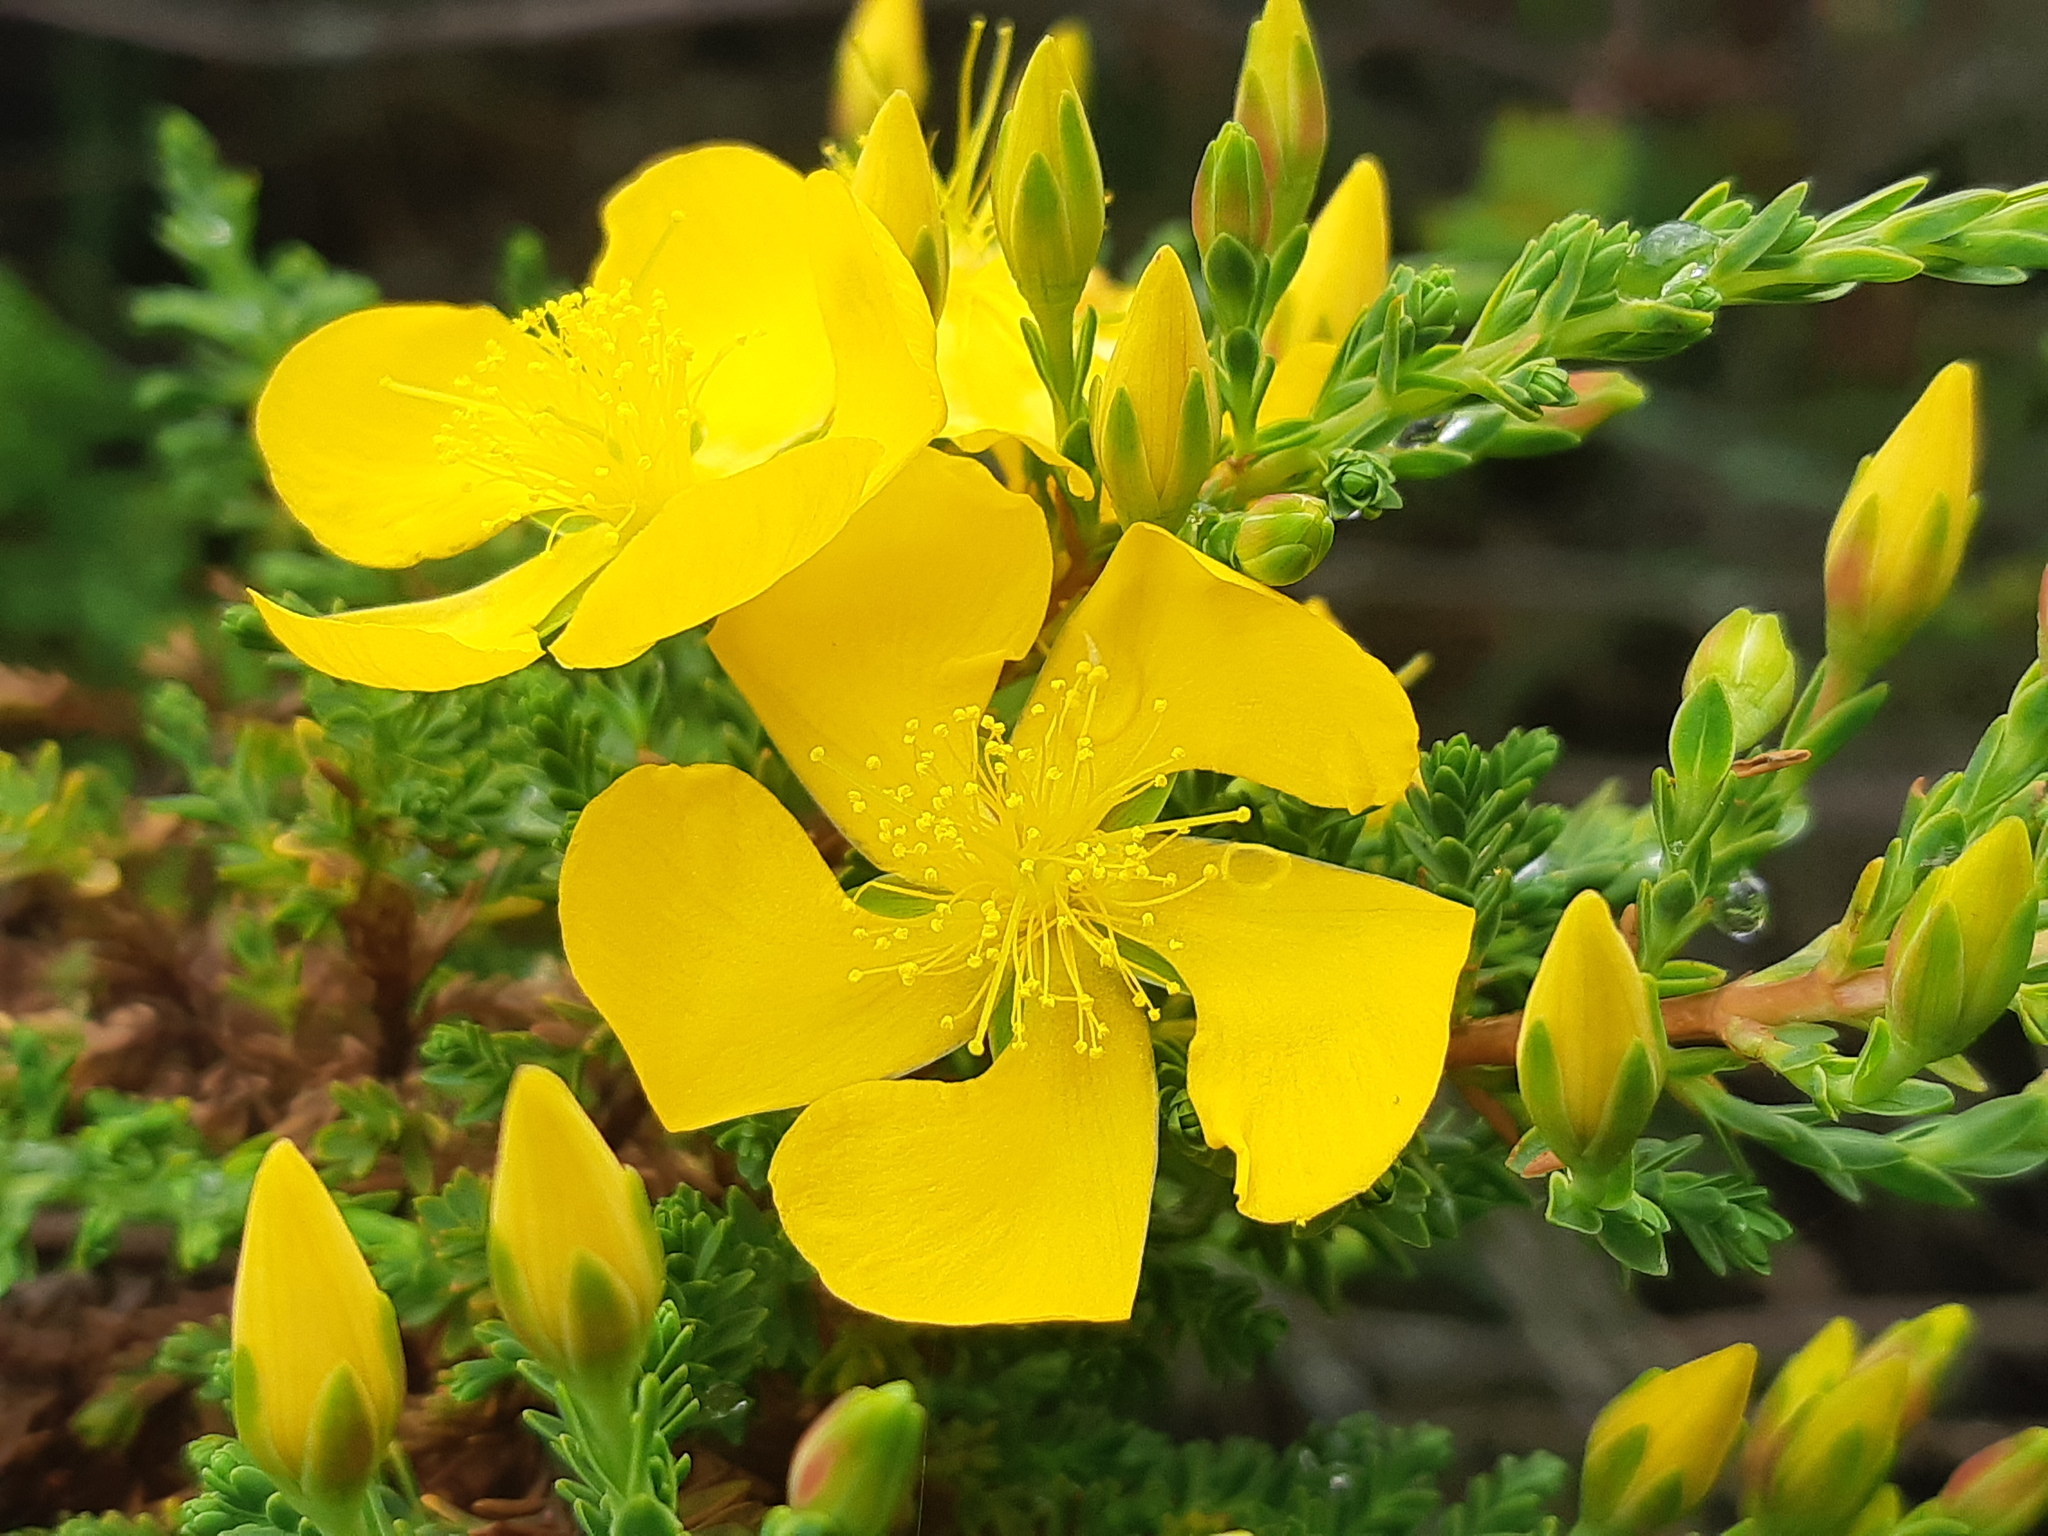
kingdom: Plantae
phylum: Tracheophyta
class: Magnoliopsida
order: Malpighiales
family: Hypericaceae
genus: Hypericum
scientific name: Hypericum laricifolium
